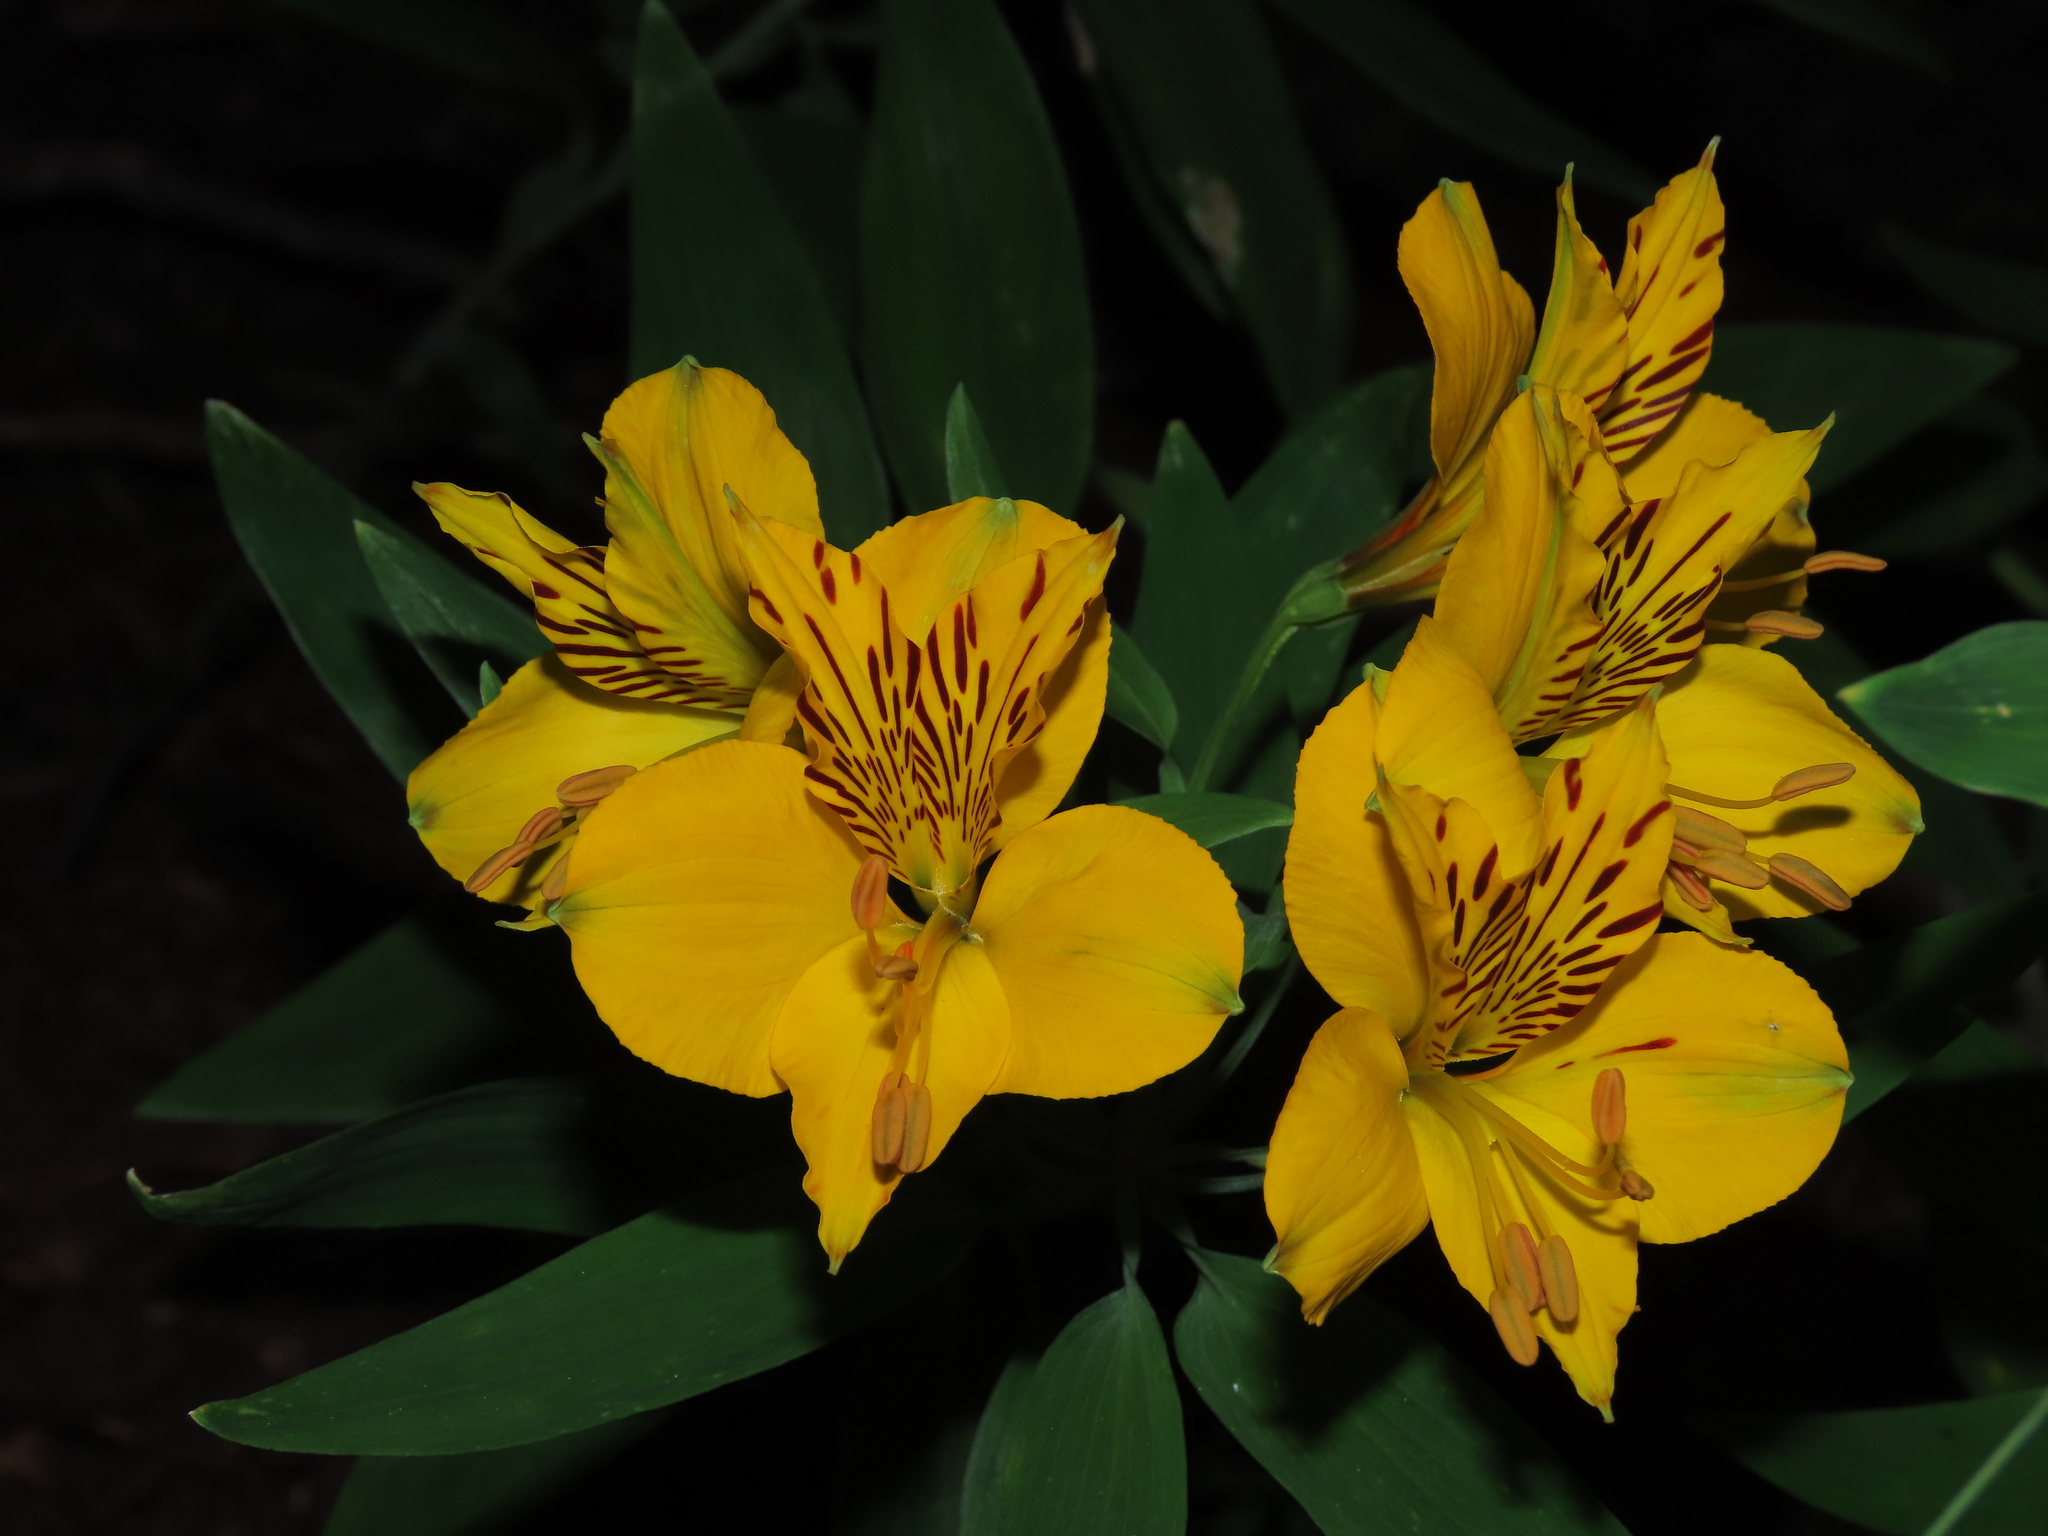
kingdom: Plantae
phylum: Tracheophyta
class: Liliopsida
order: Liliales
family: Alstroemeriaceae
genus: Alstroemeria
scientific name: Alstroemeria aurea
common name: Peruvian lily
